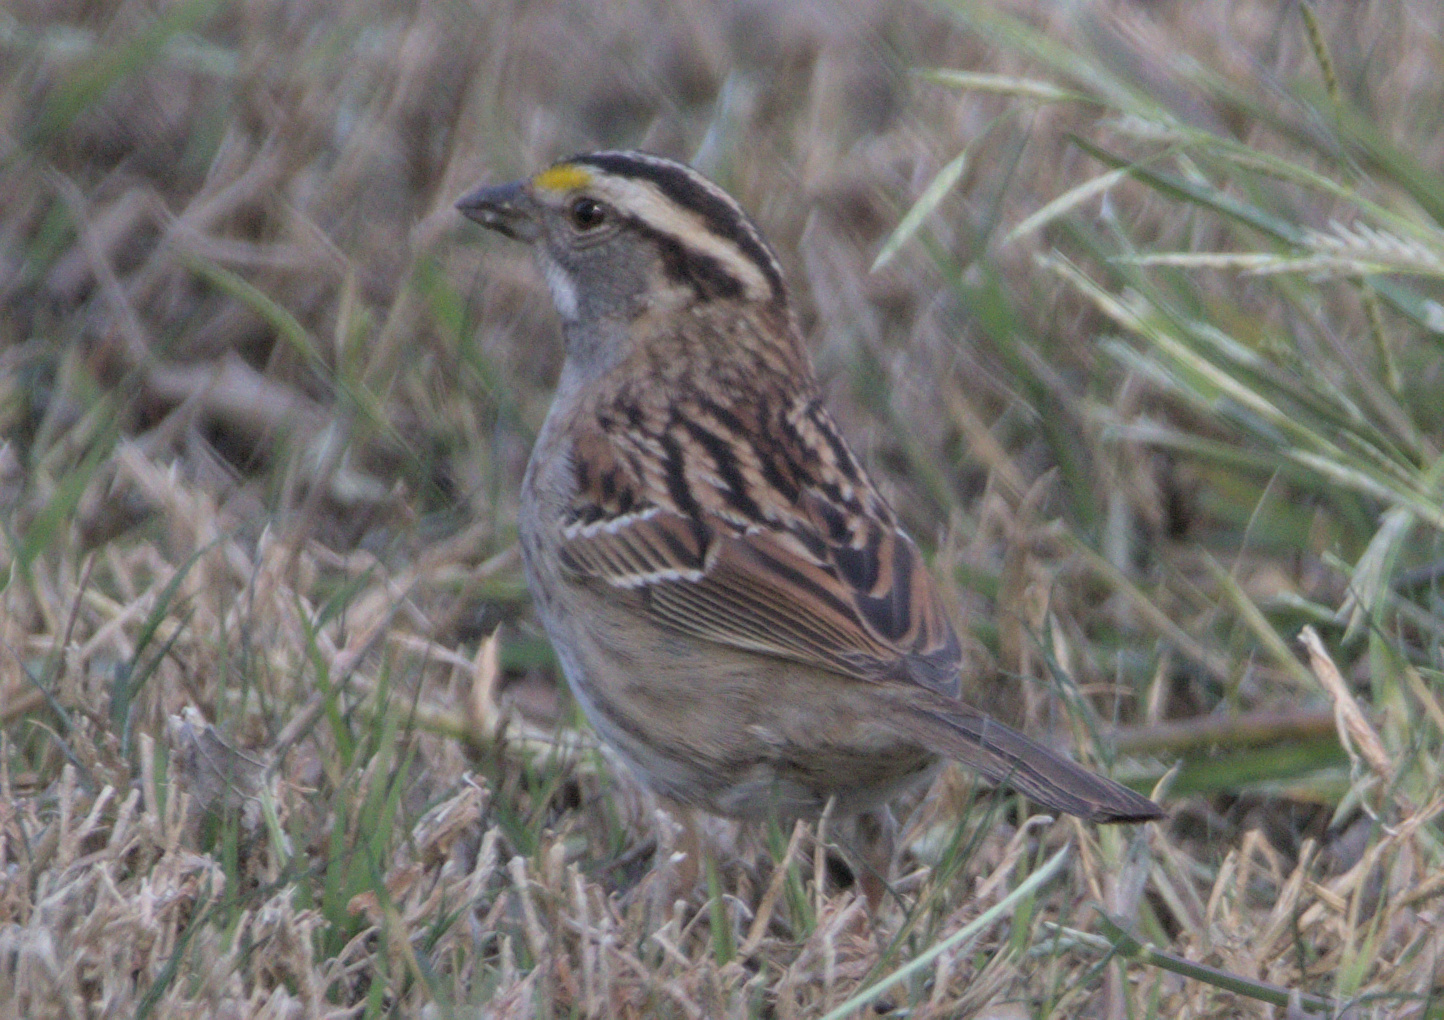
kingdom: Animalia
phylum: Chordata
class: Aves
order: Passeriformes
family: Passerellidae
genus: Zonotrichia
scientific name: Zonotrichia albicollis
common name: White-throated sparrow
